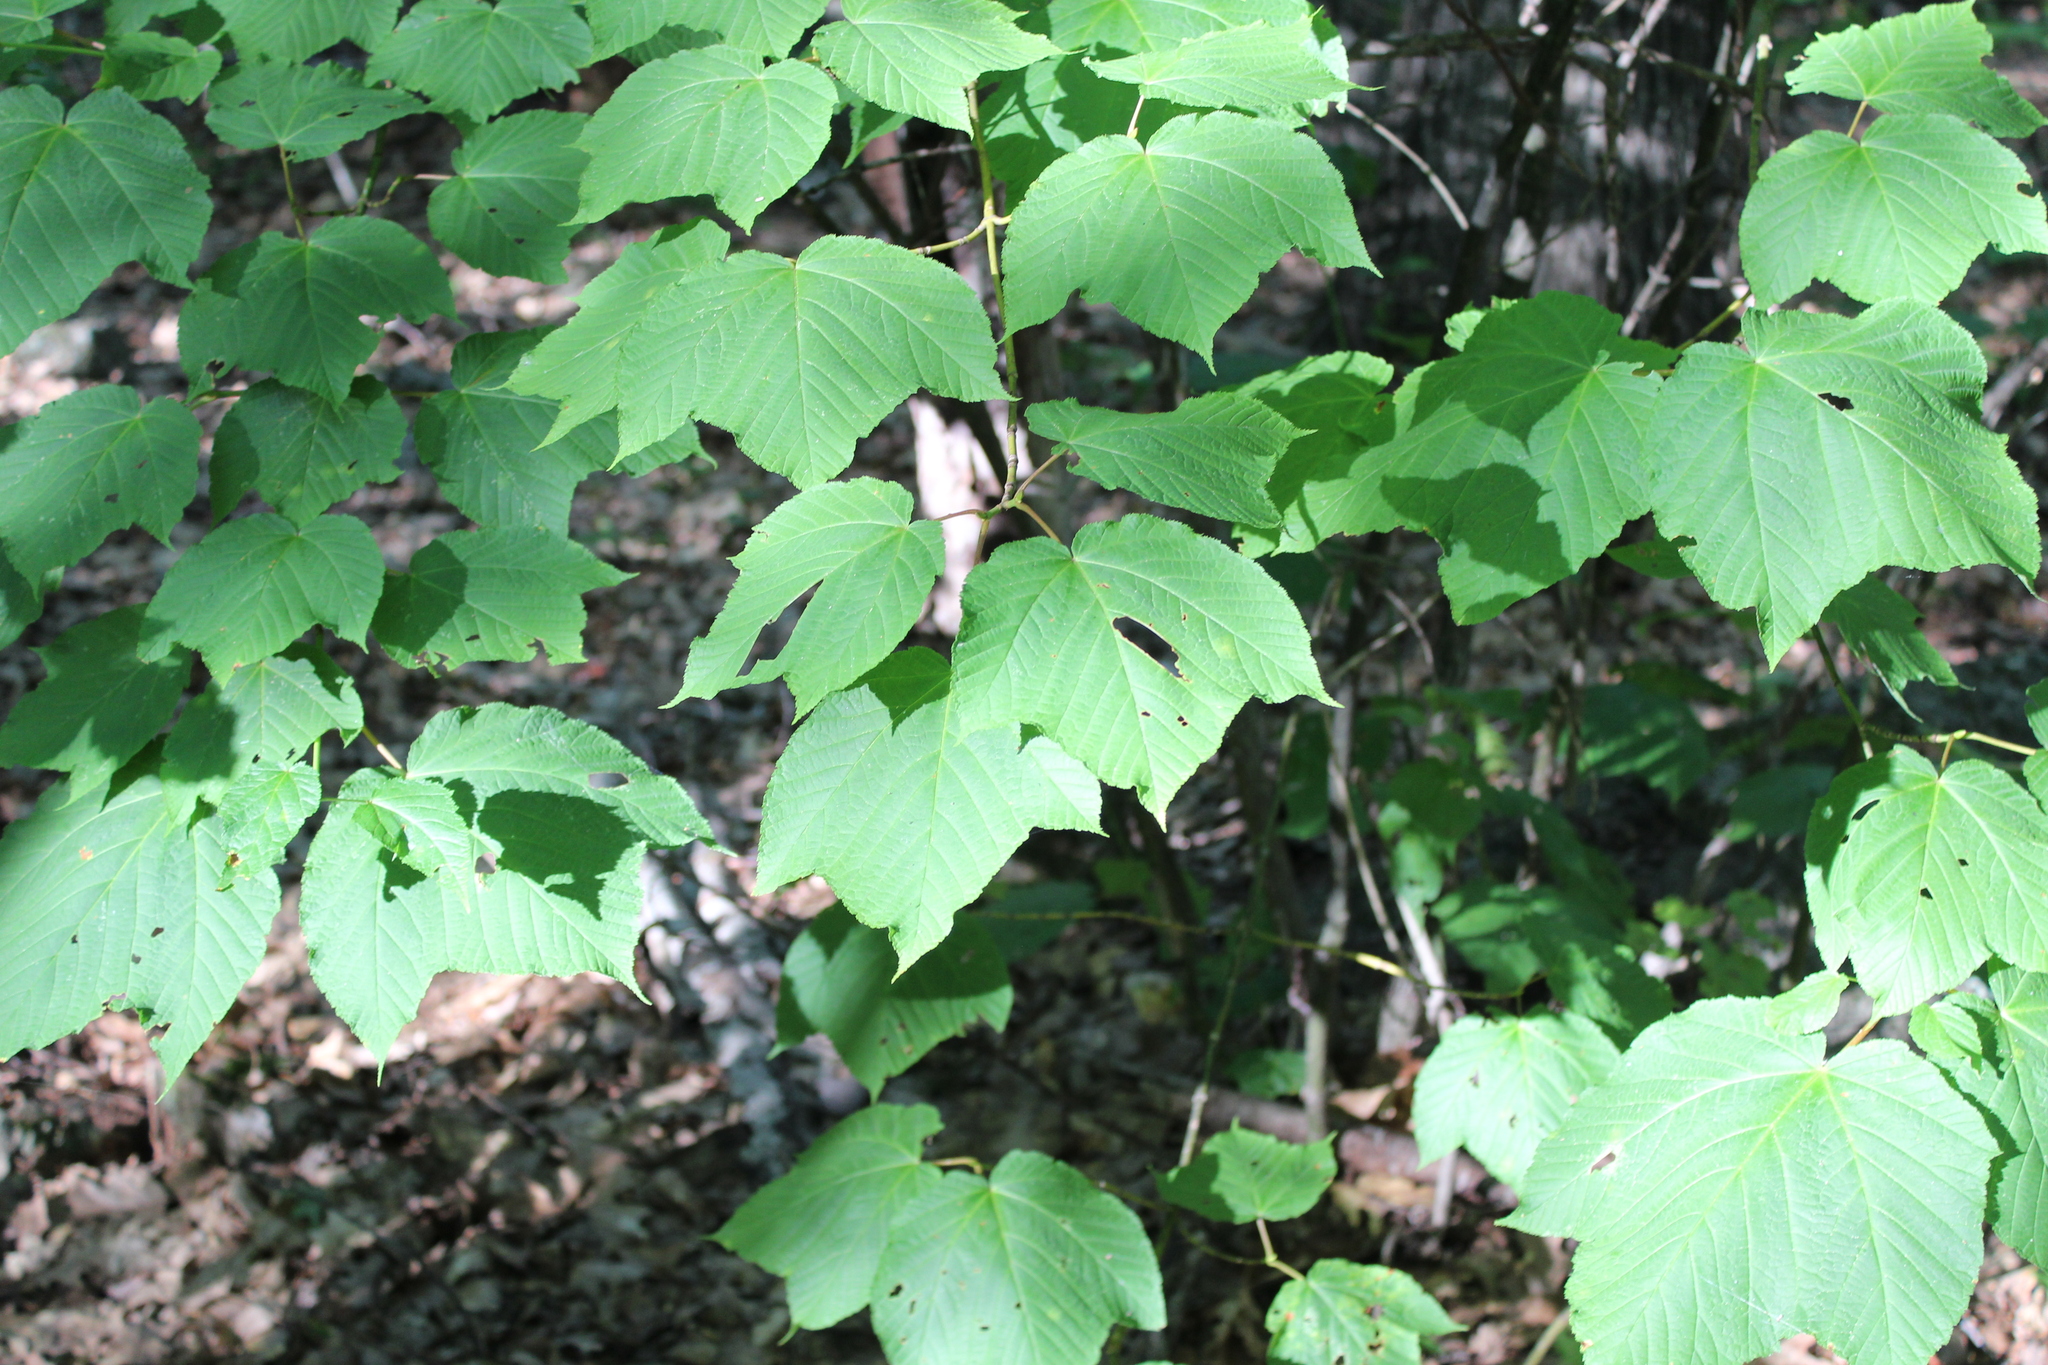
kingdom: Plantae
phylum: Tracheophyta
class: Magnoliopsida
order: Sapindales
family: Sapindaceae
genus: Acer
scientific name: Acer pensylvanicum
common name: Moosewood
